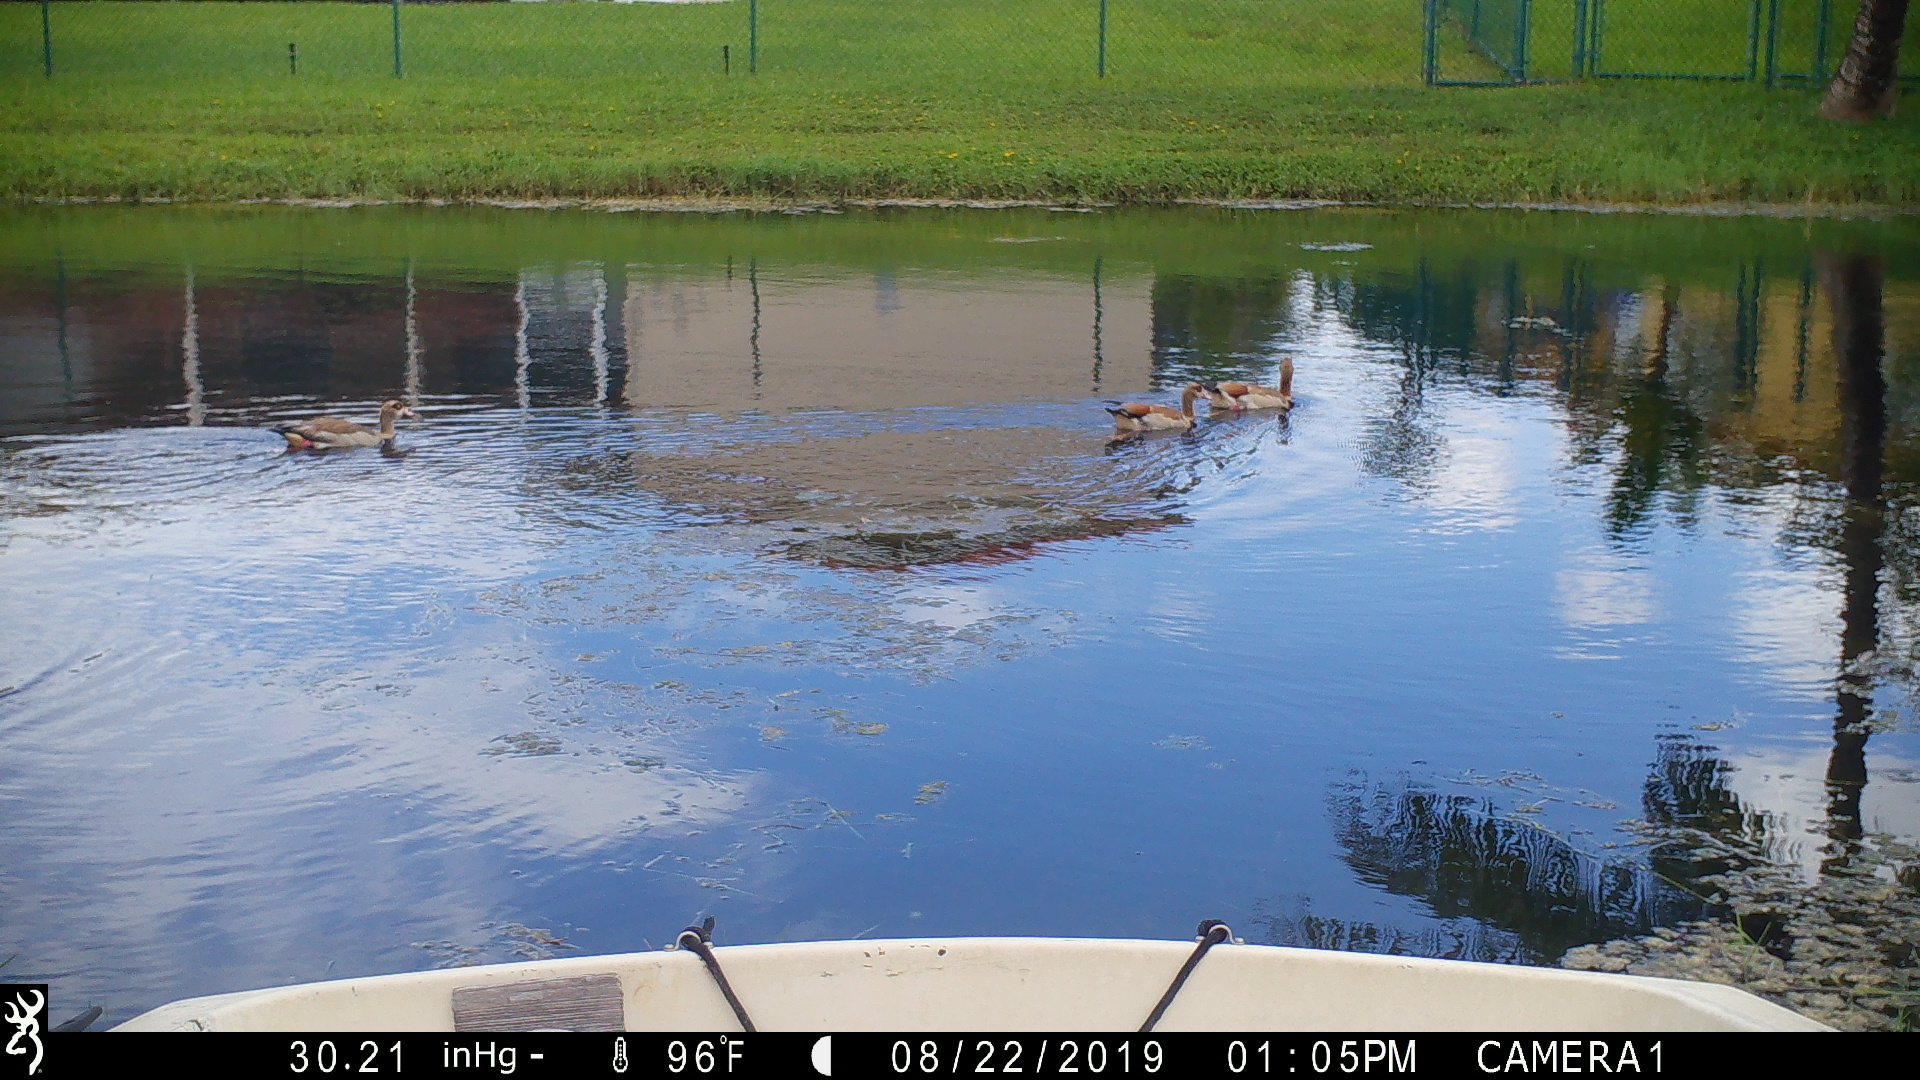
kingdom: Animalia
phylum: Chordata
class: Aves
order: Anseriformes
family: Anatidae
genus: Alopochen
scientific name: Alopochen aegyptiaca
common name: Egyptian goose
